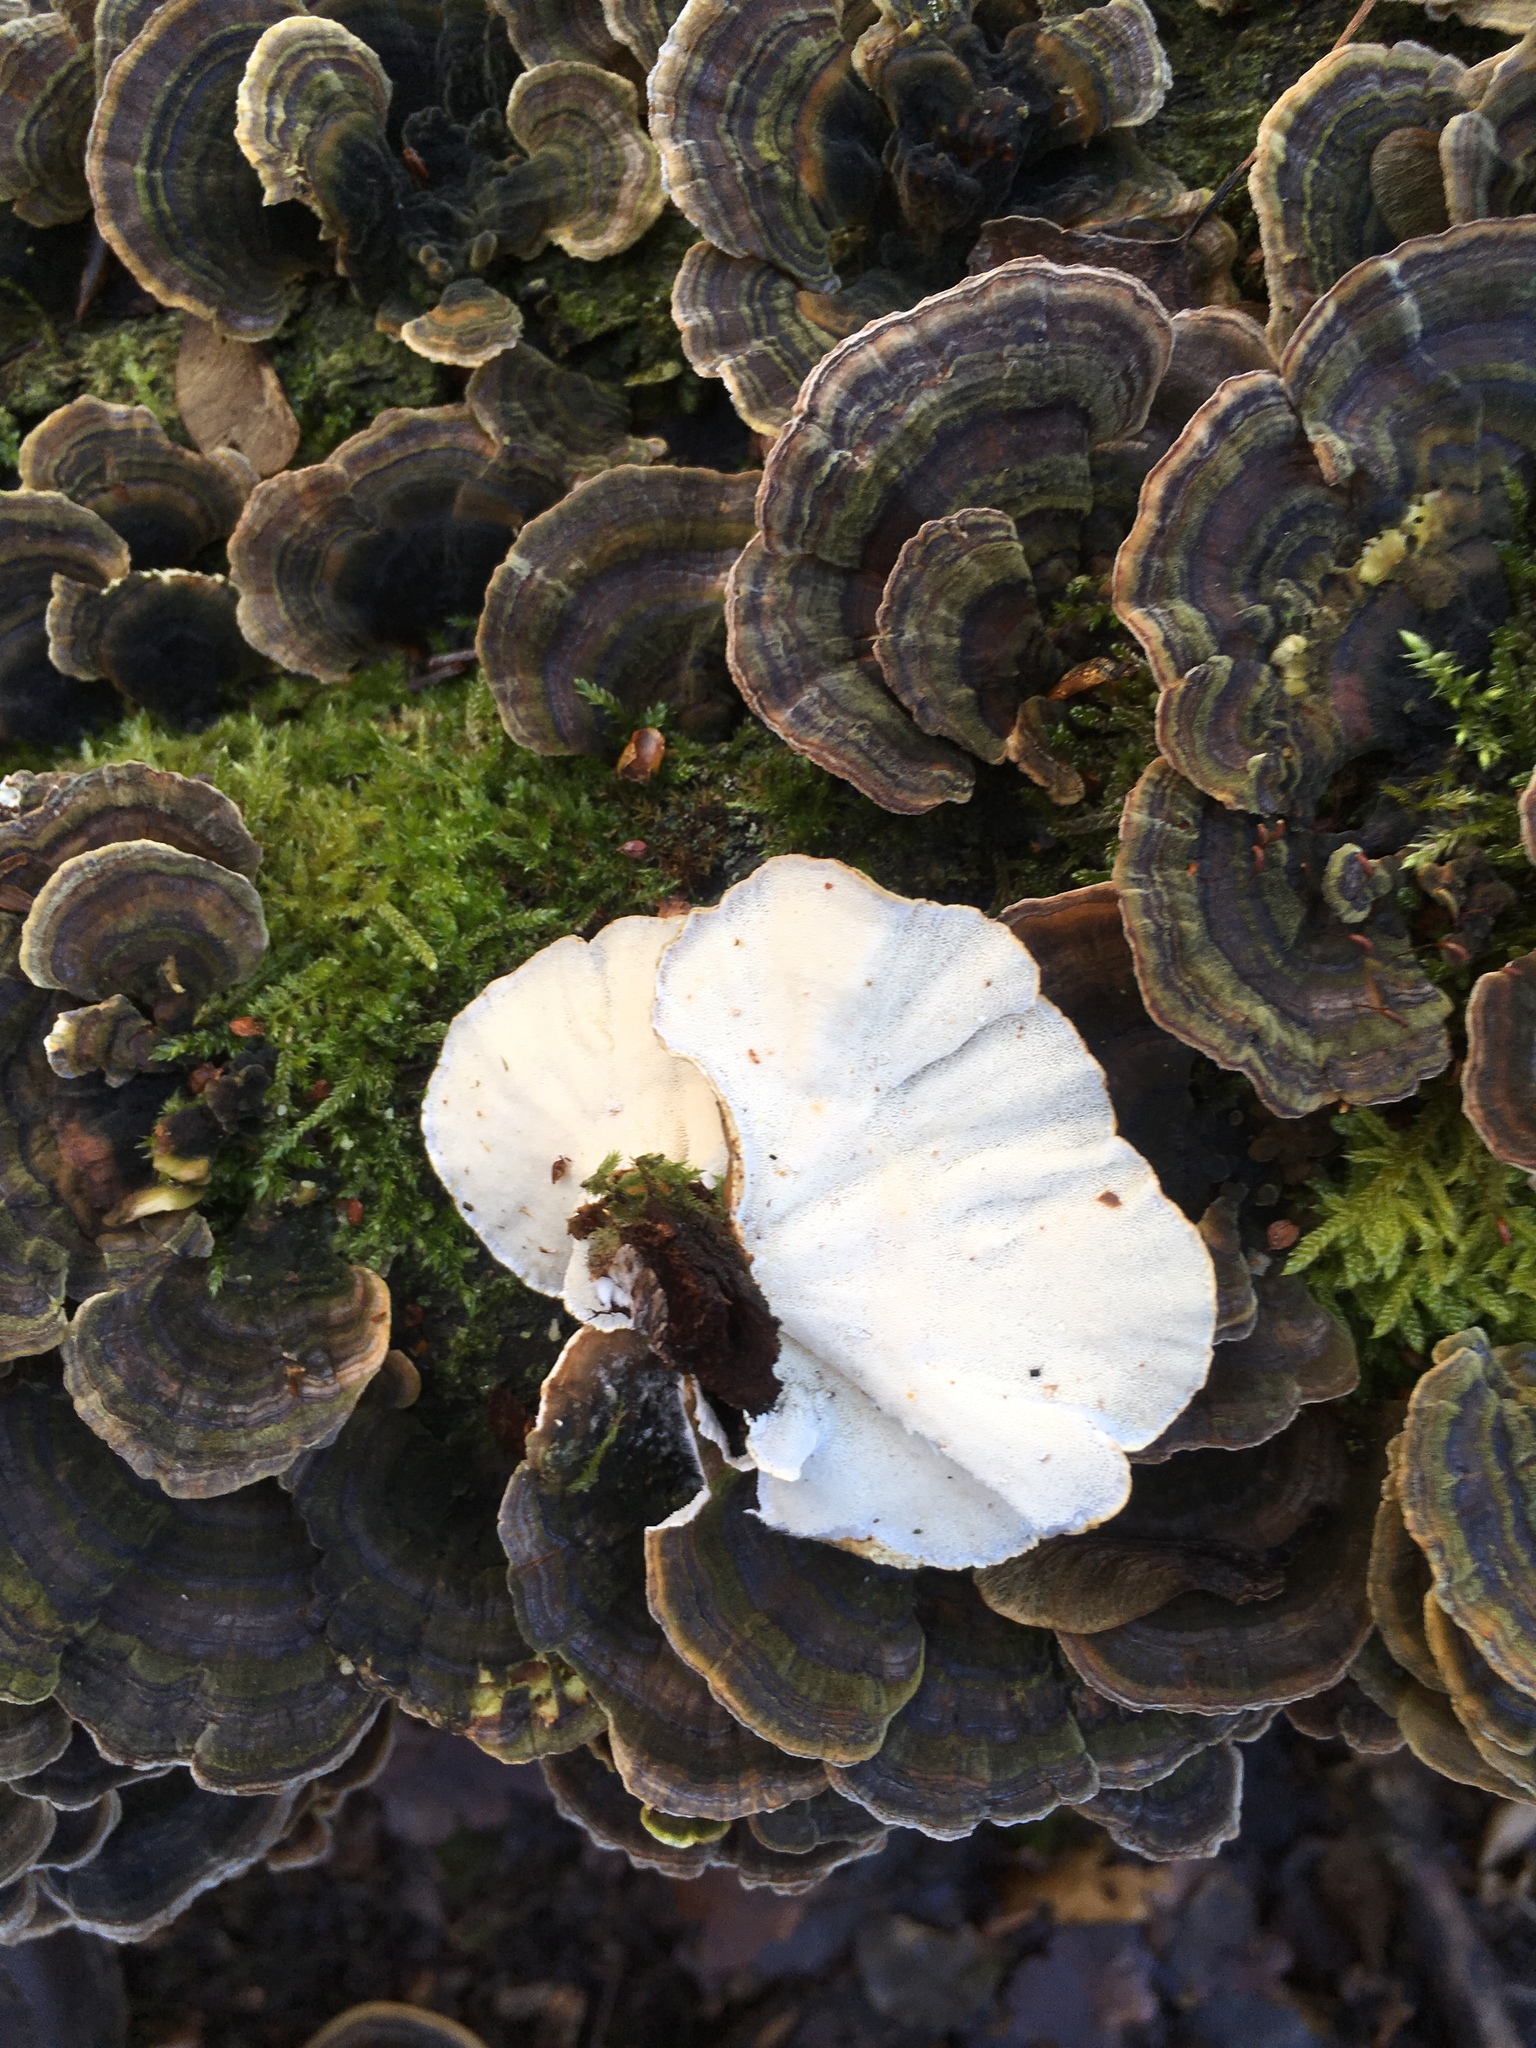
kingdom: Fungi
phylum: Basidiomycota
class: Agaricomycetes
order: Polyporales
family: Polyporaceae
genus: Trametes
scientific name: Trametes versicolor
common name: Turkeytail
